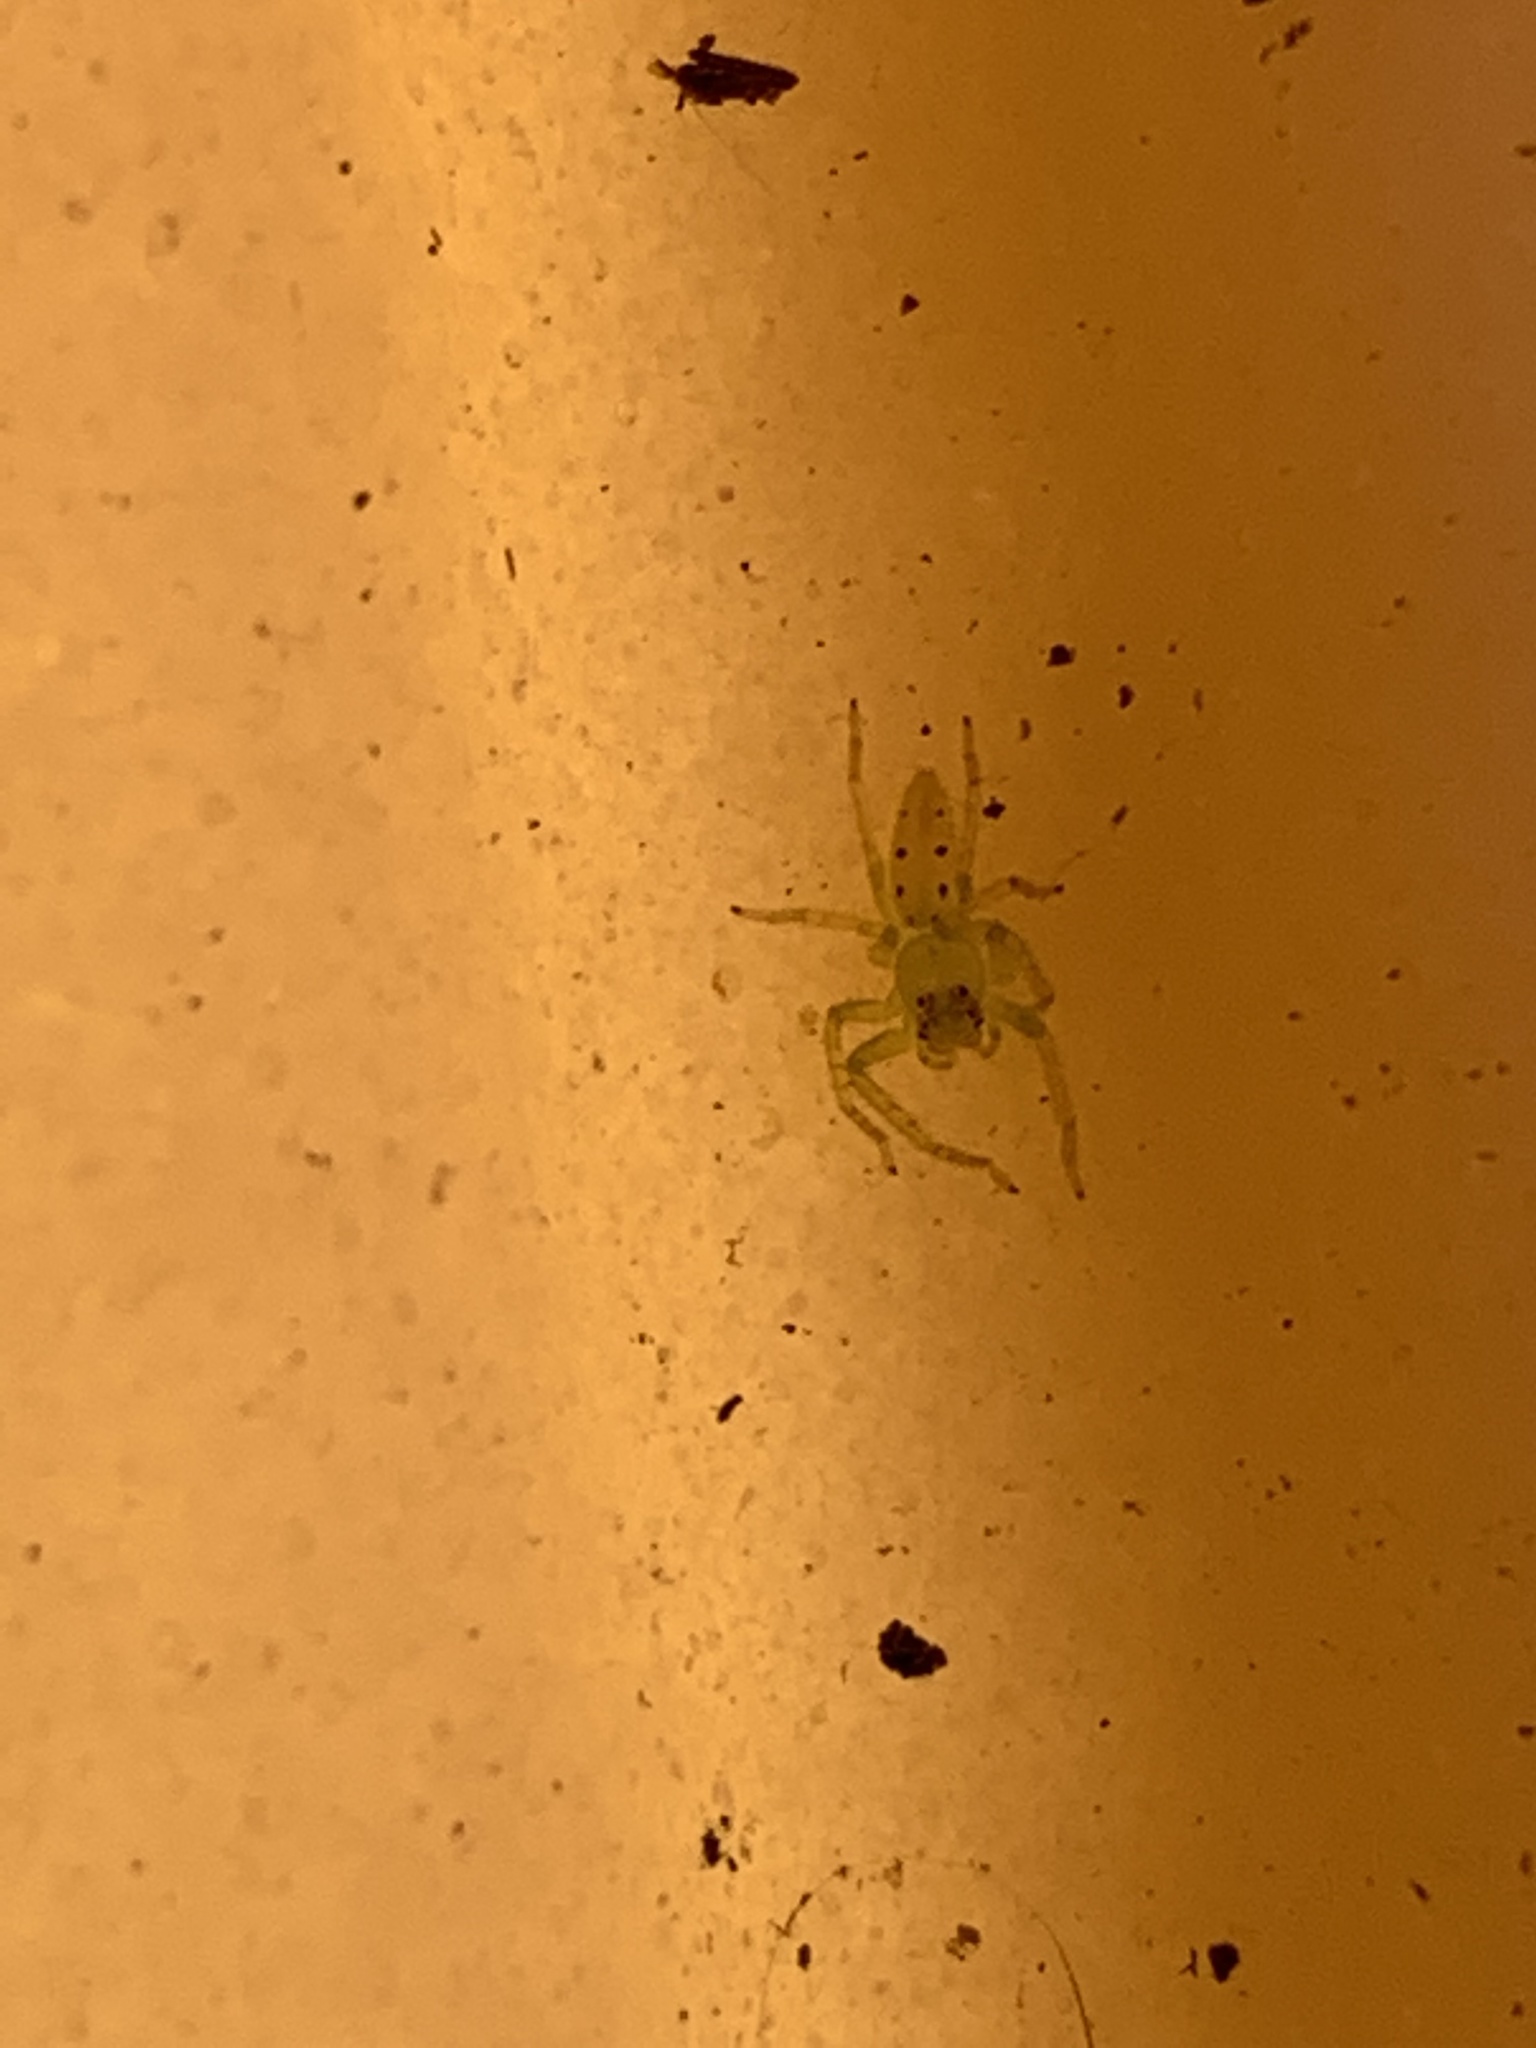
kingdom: Animalia
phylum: Arthropoda
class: Arachnida
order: Araneae
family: Salticidae
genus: Lyssomanes
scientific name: Lyssomanes viridis
